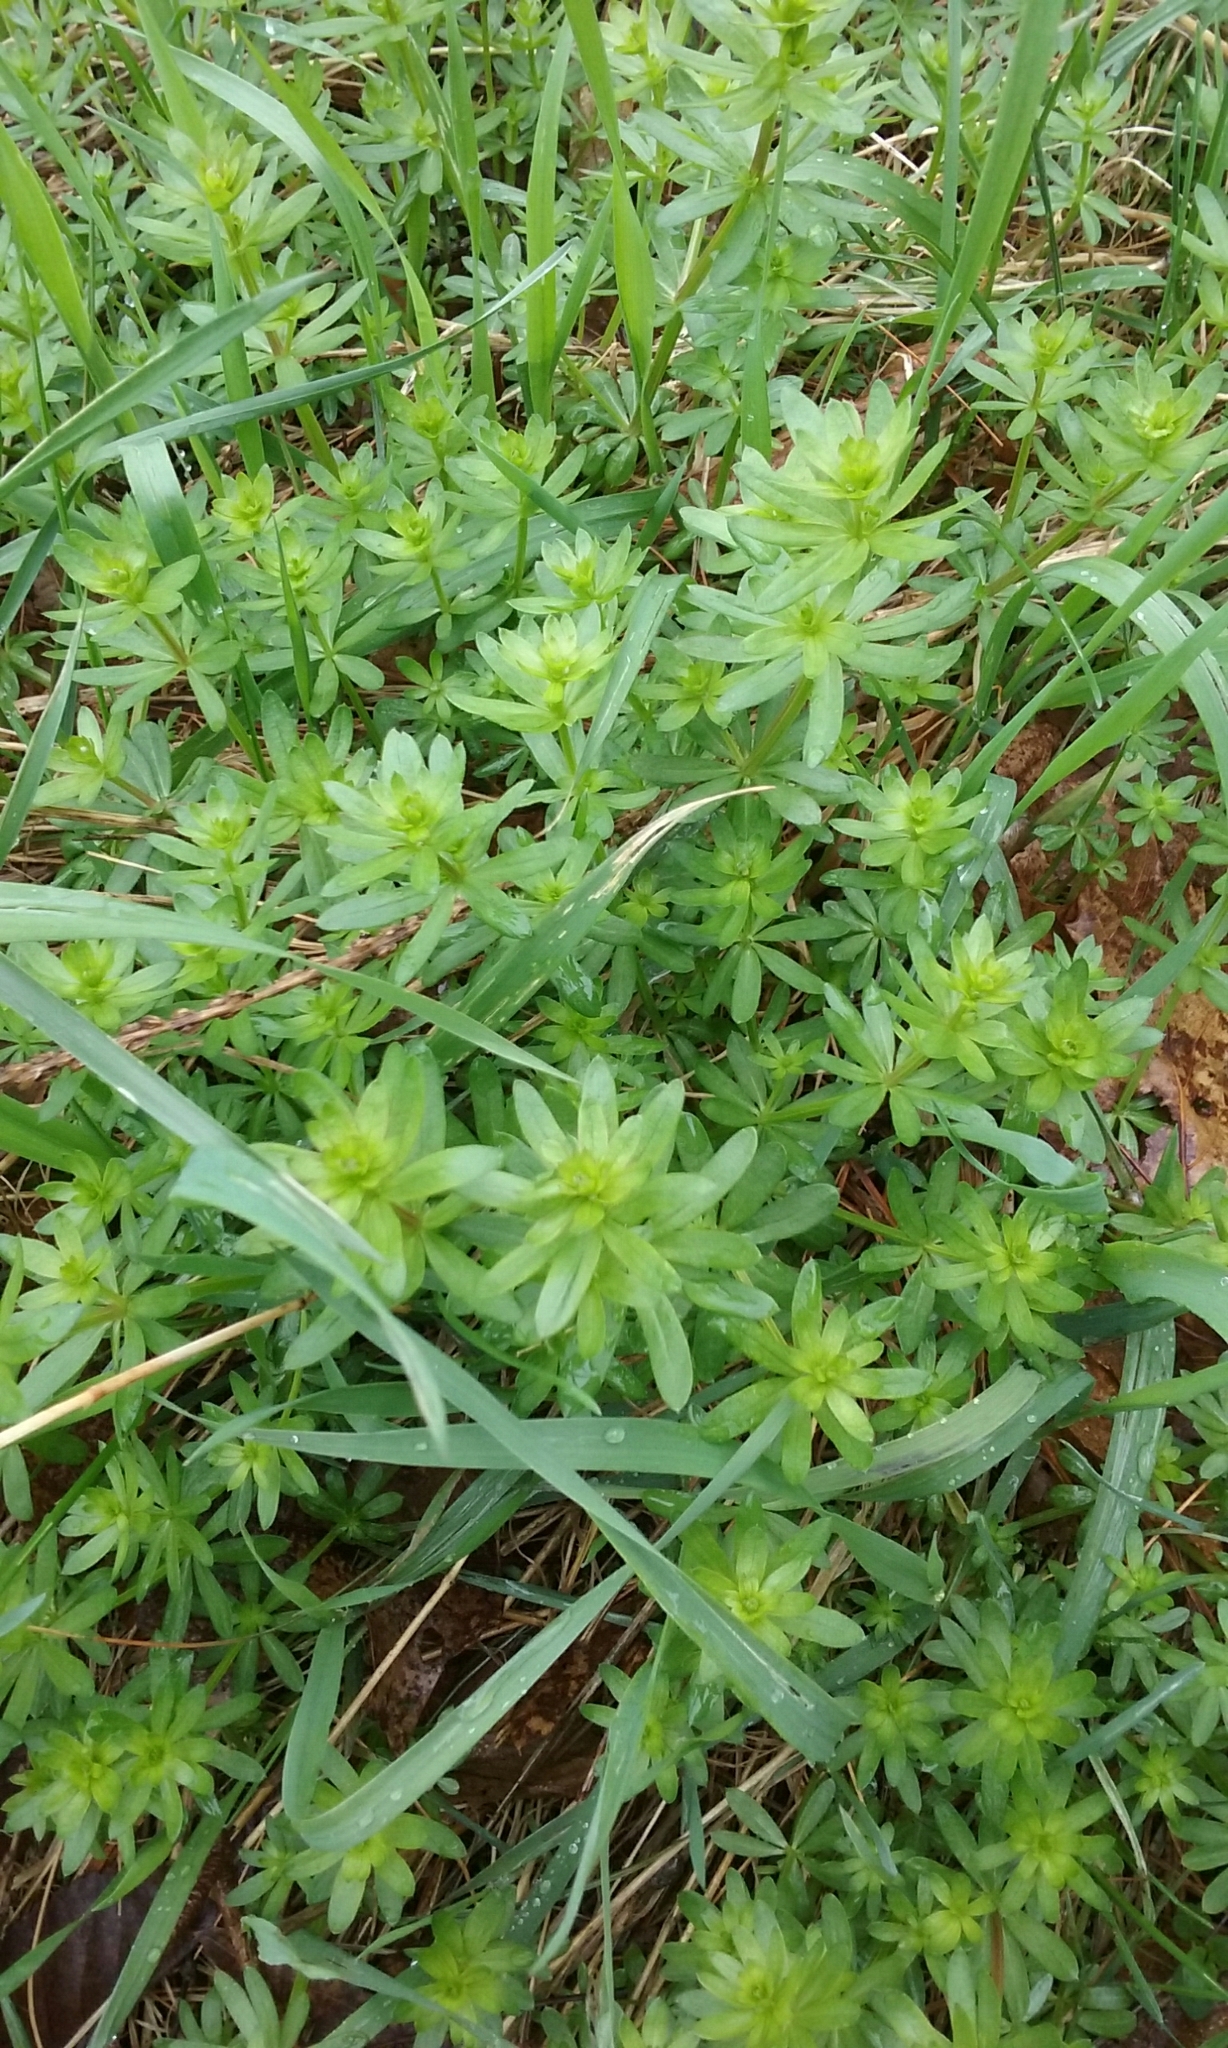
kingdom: Plantae
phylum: Tracheophyta
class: Magnoliopsida
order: Gentianales
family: Rubiaceae
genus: Galium
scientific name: Galium mollugo
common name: Hedge bedstraw
